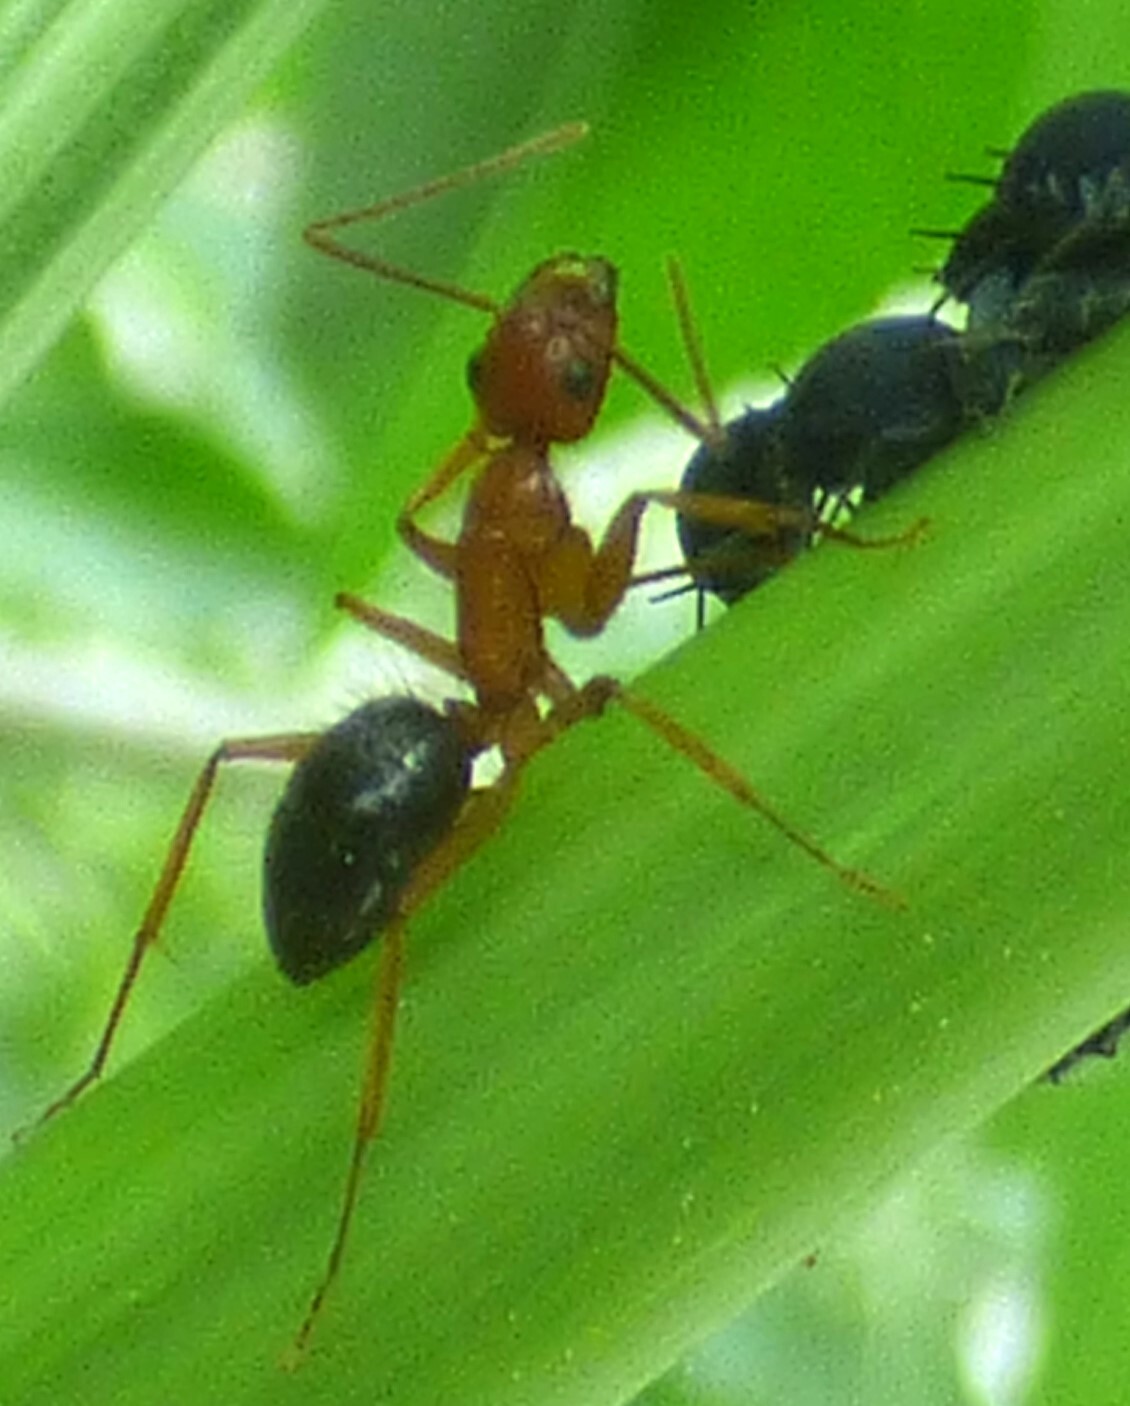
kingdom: Animalia
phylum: Arthropoda
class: Insecta
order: Hymenoptera
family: Formicidae
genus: Camponotus
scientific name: Camponotus floridanus
